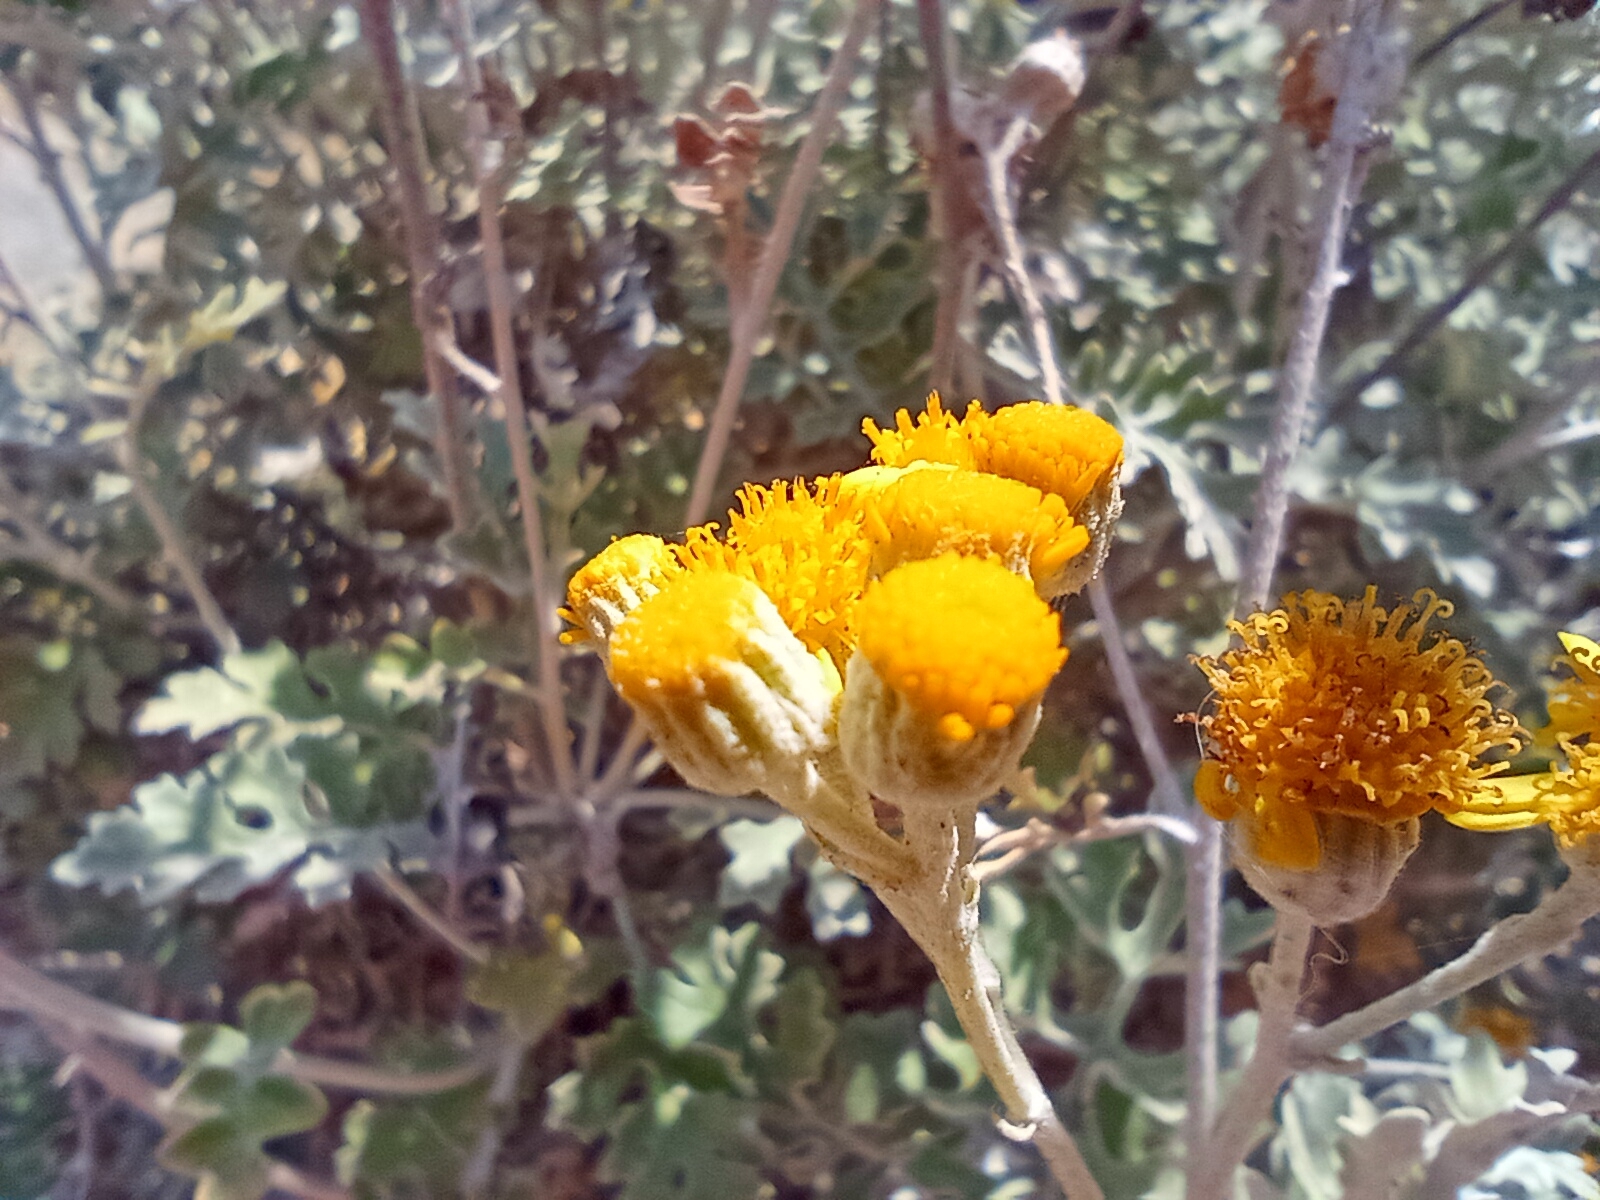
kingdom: Plantae
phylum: Tracheophyta
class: Magnoliopsida
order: Asterales
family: Asteraceae
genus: Jacobaea
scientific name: Jacobaea maritima
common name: Silver ragwort
